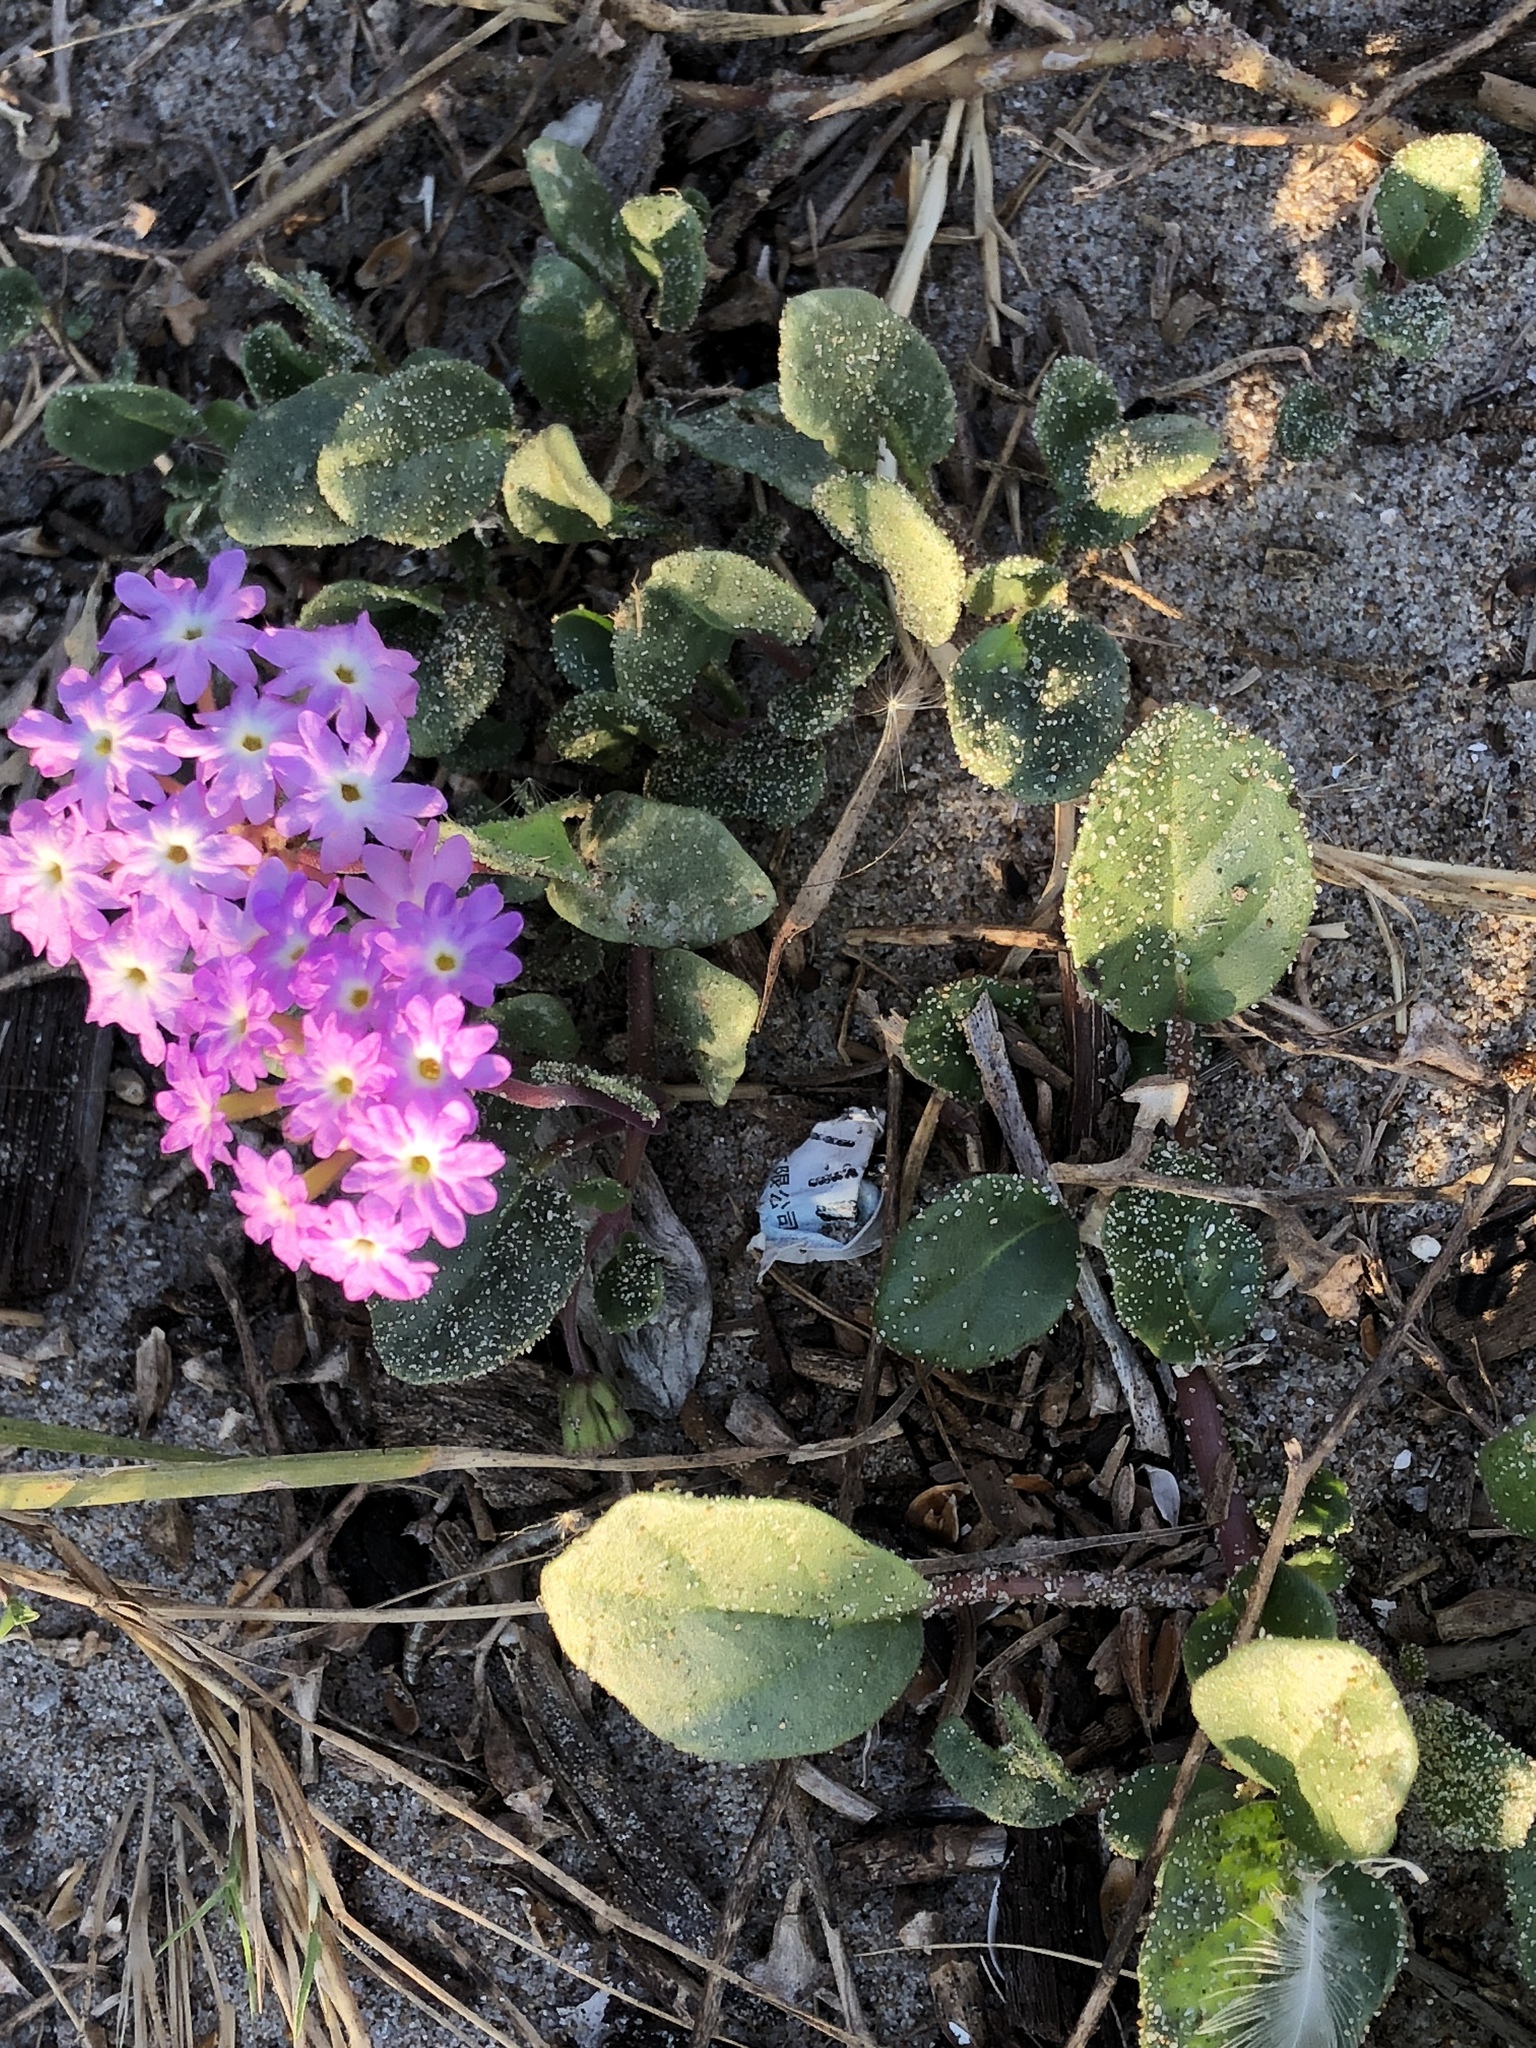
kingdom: Plantae
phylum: Tracheophyta
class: Magnoliopsida
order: Caryophyllales
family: Nyctaginaceae
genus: Abronia
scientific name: Abronia umbellata
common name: Sand-verbena
